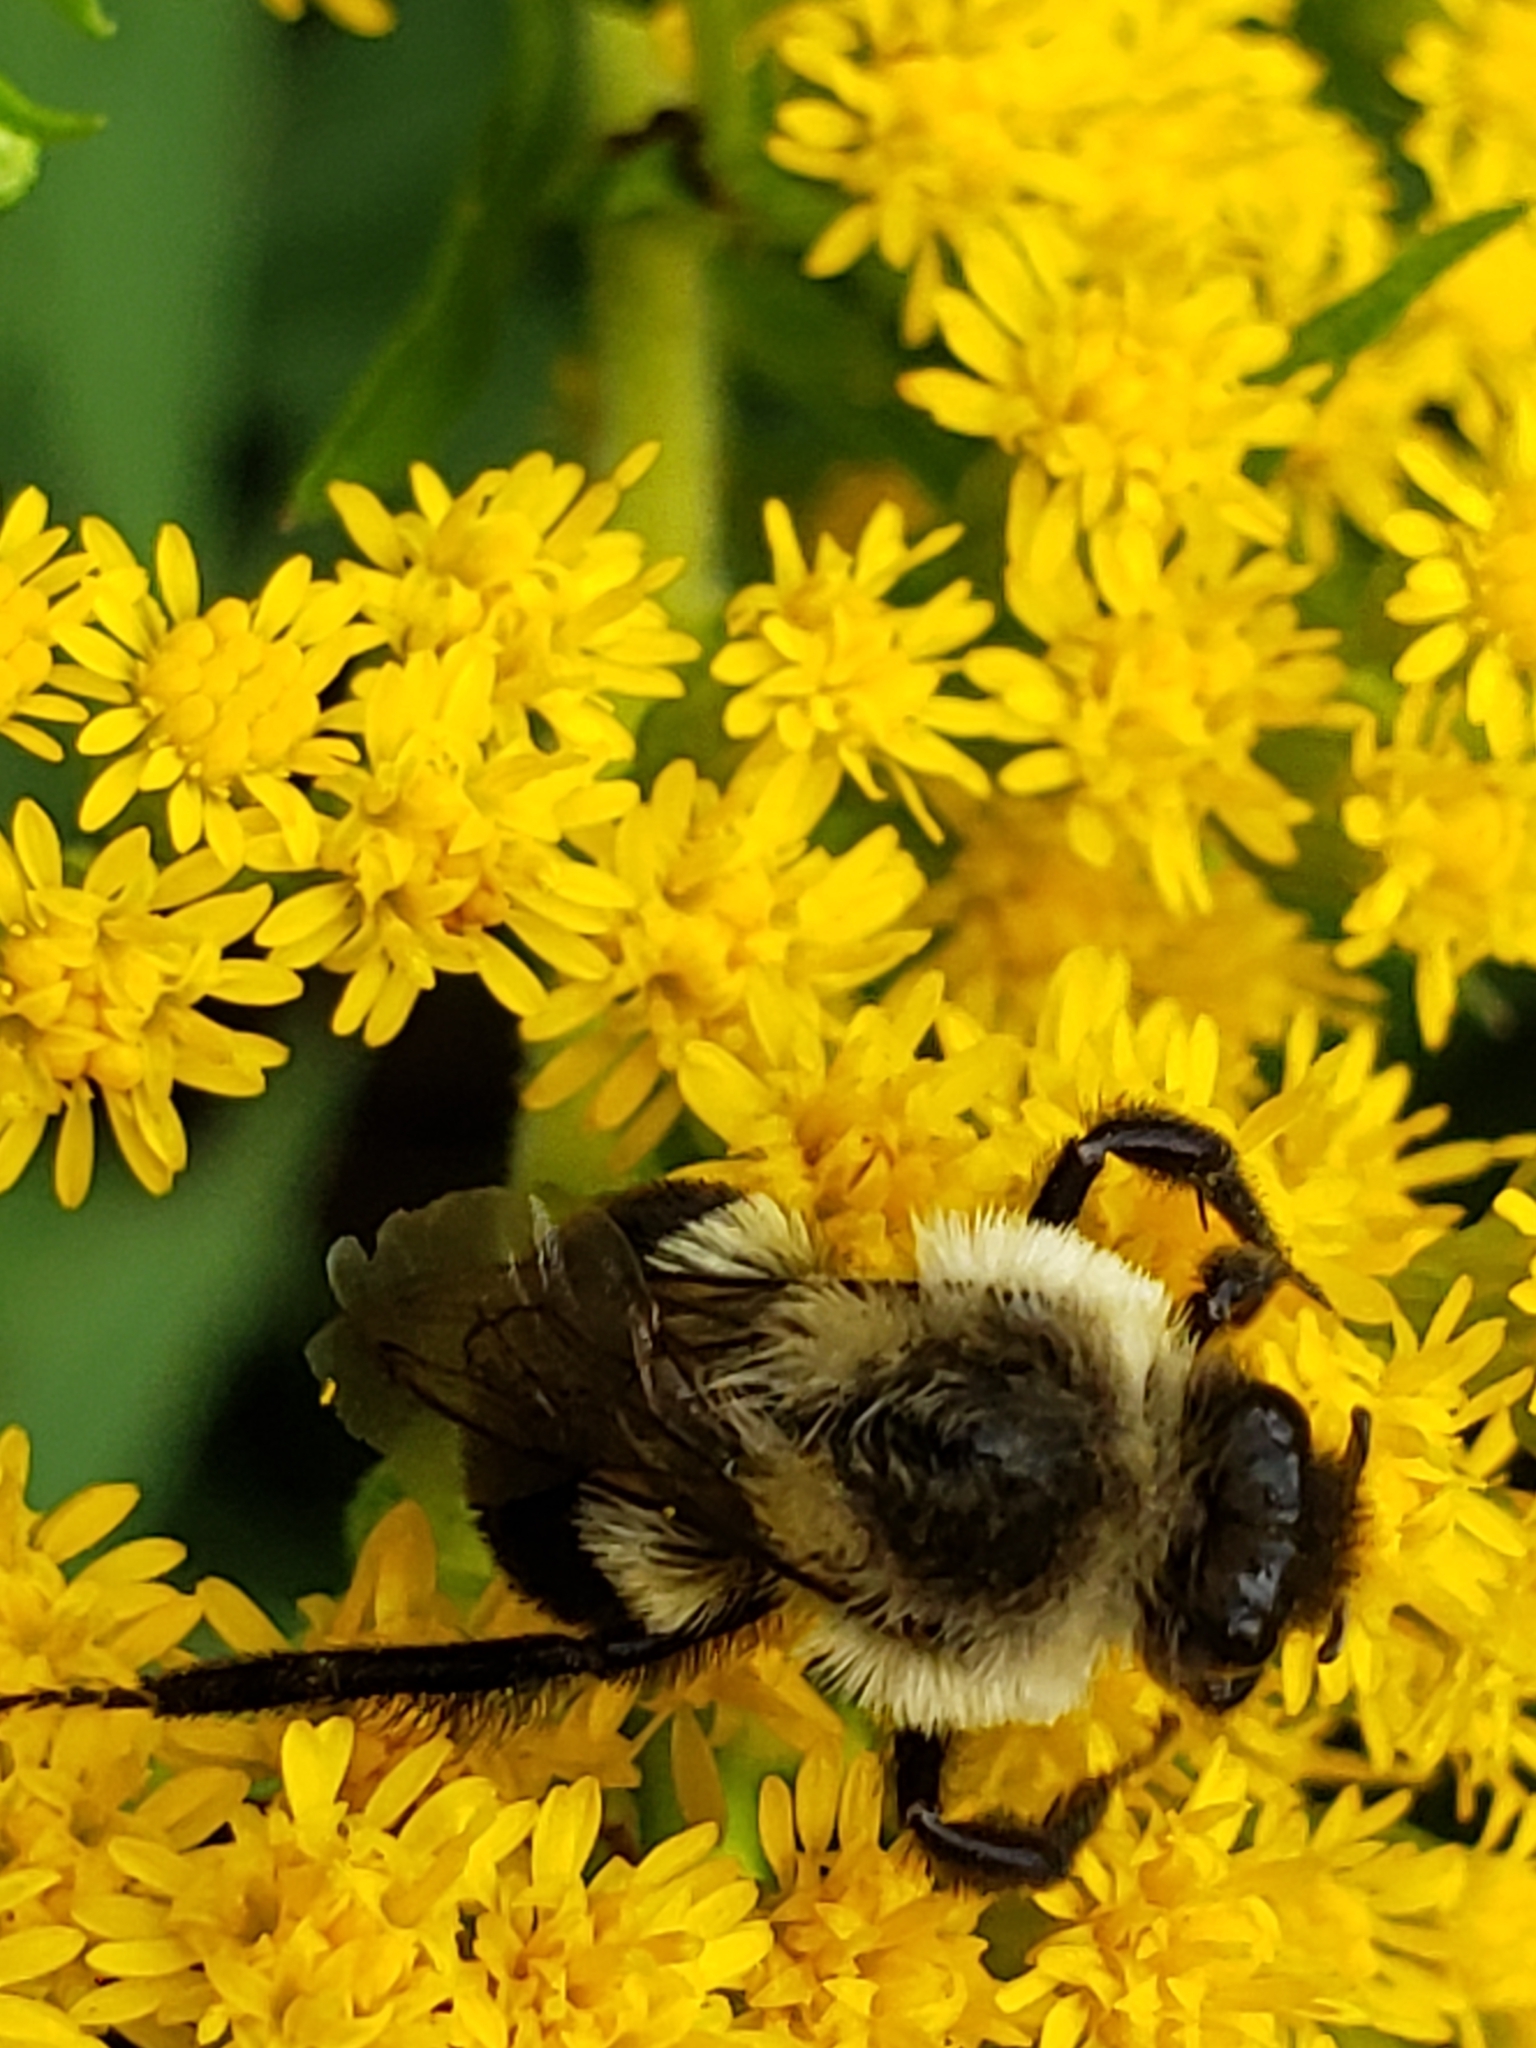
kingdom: Animalia
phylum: Arthropoda
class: Insecta
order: Hymenoptera
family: Apidae
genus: Bombus
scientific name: Bombus impatiens
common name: Common eastern bumble bee
